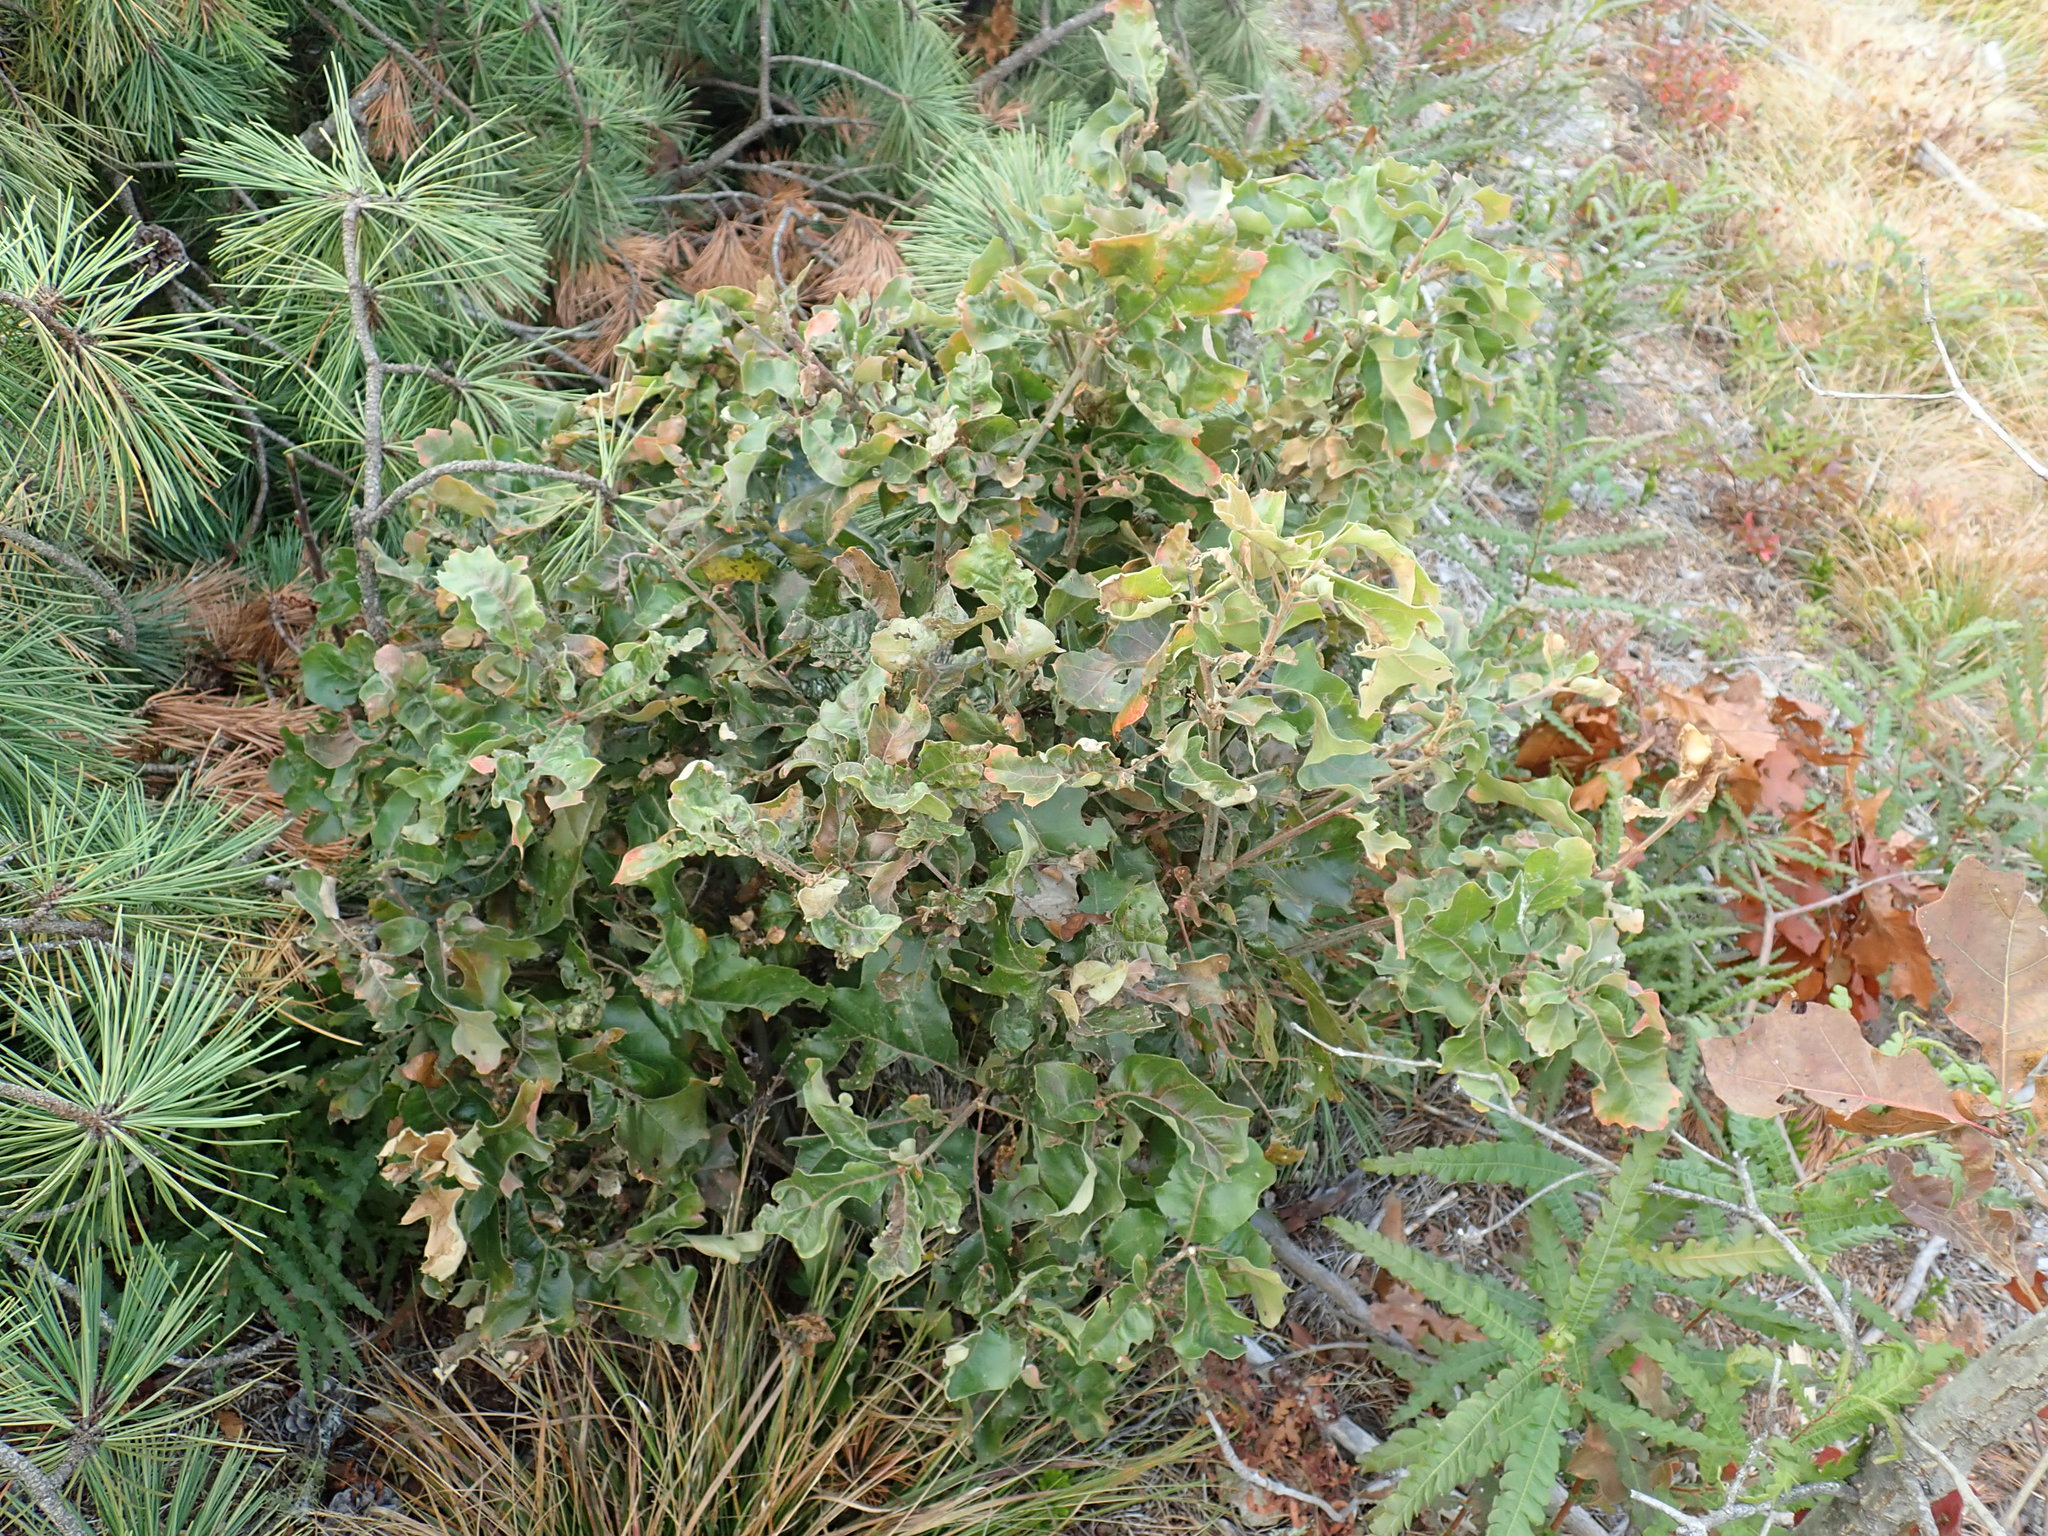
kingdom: Plantae
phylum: Tracheophyta
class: Magnoliopsida
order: Fagales
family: Fagaceae
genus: Quercus
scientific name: Quercus ilicifolia
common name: Bear oak
